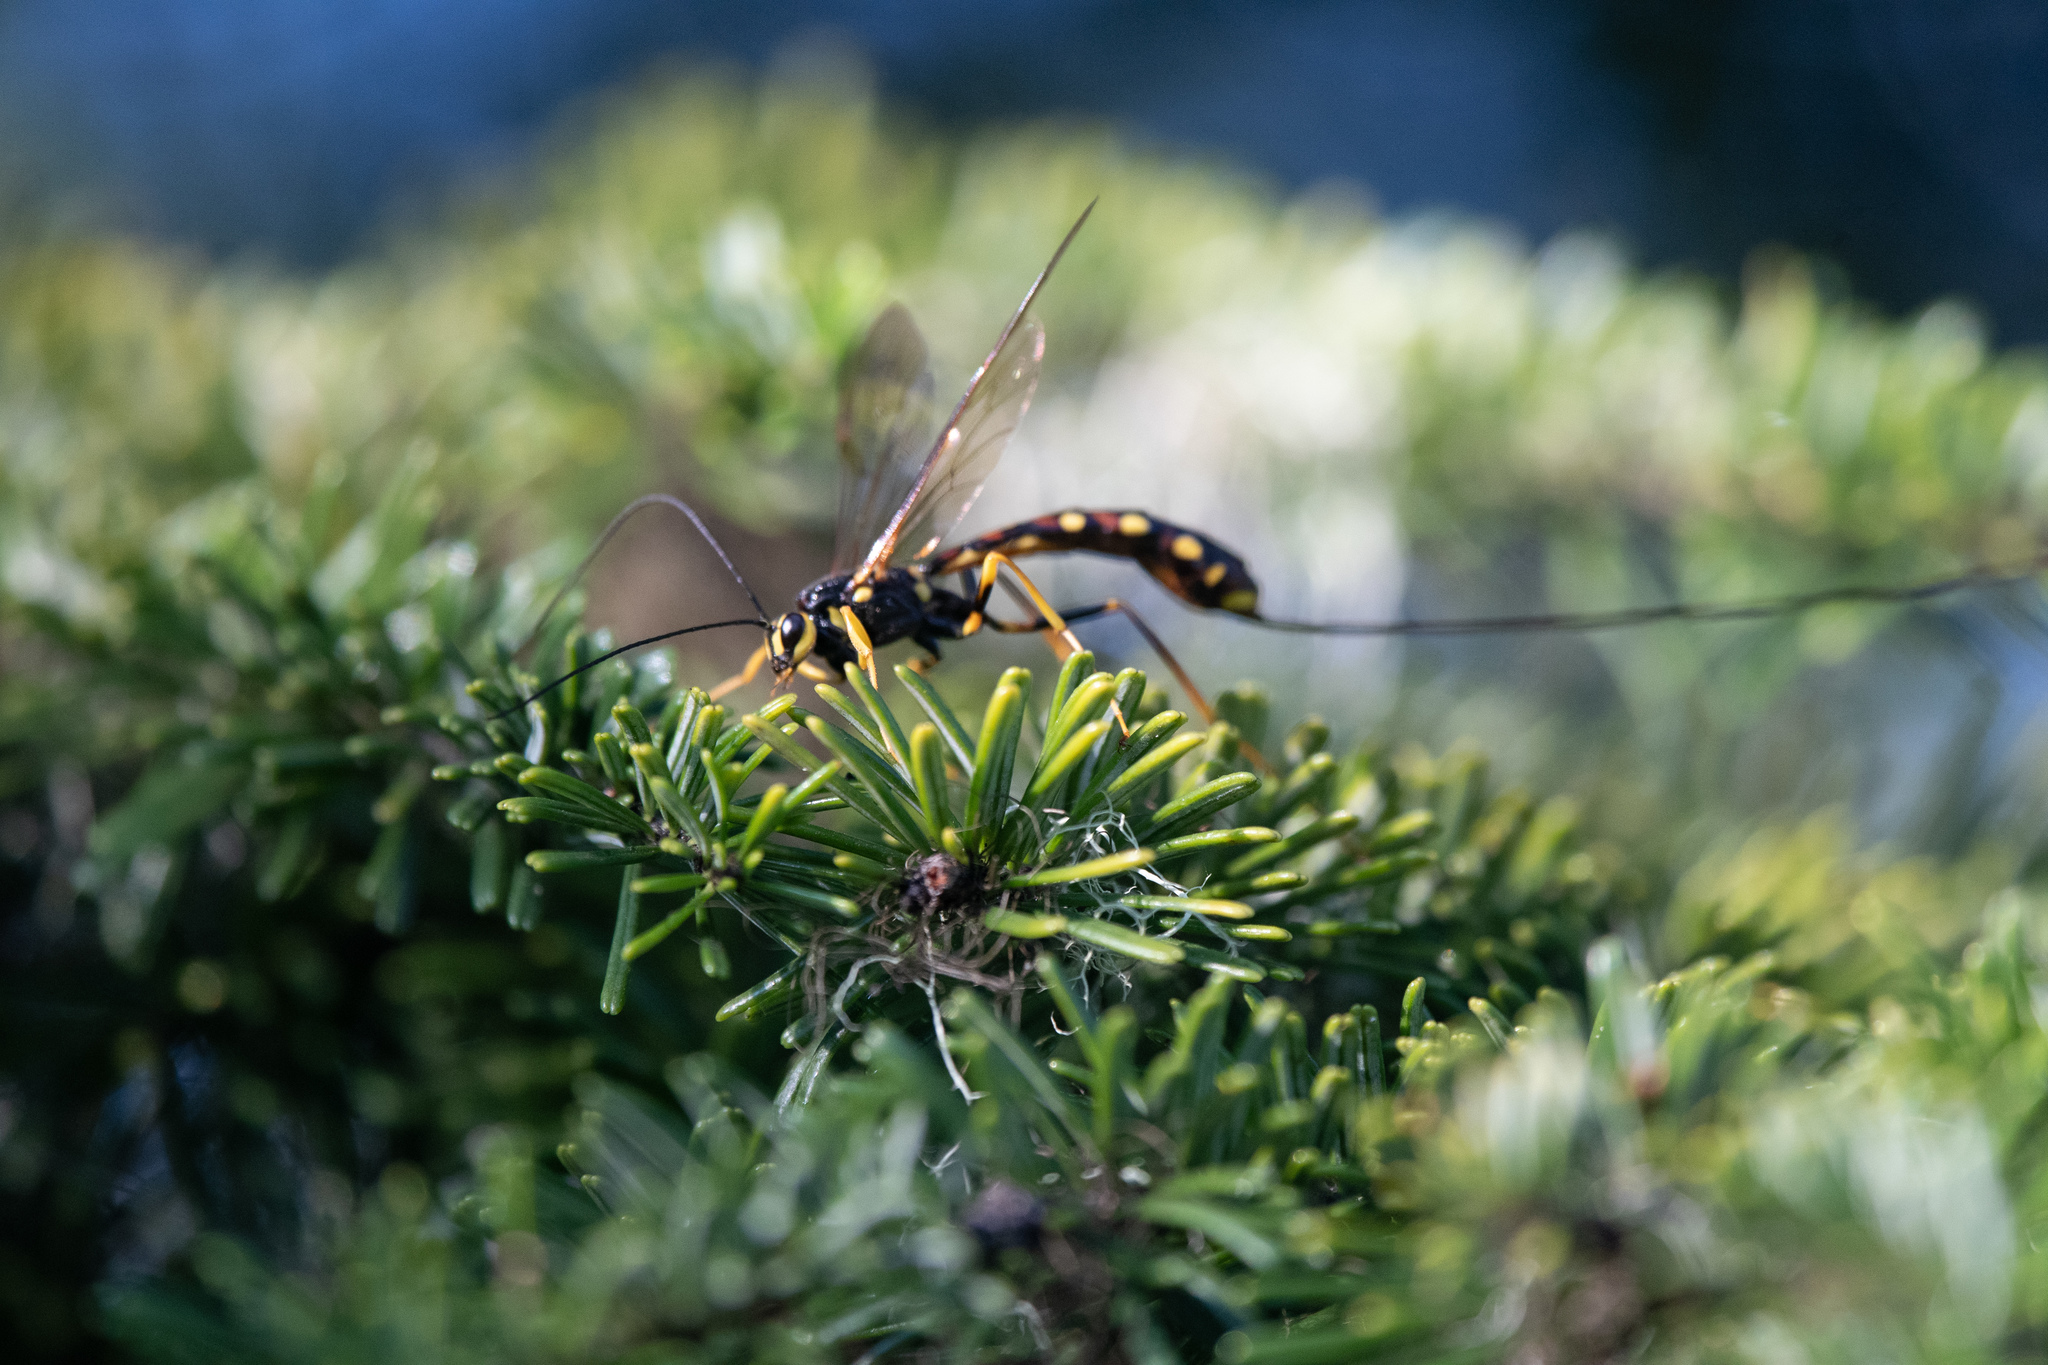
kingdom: Animalia
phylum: Arthropoda
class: Insecta
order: Hymenoptera
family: Ichneumonidae
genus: Megarhyssa
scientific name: Megarhyssa nortoni
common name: Norton's giant ichneumonid wasp
